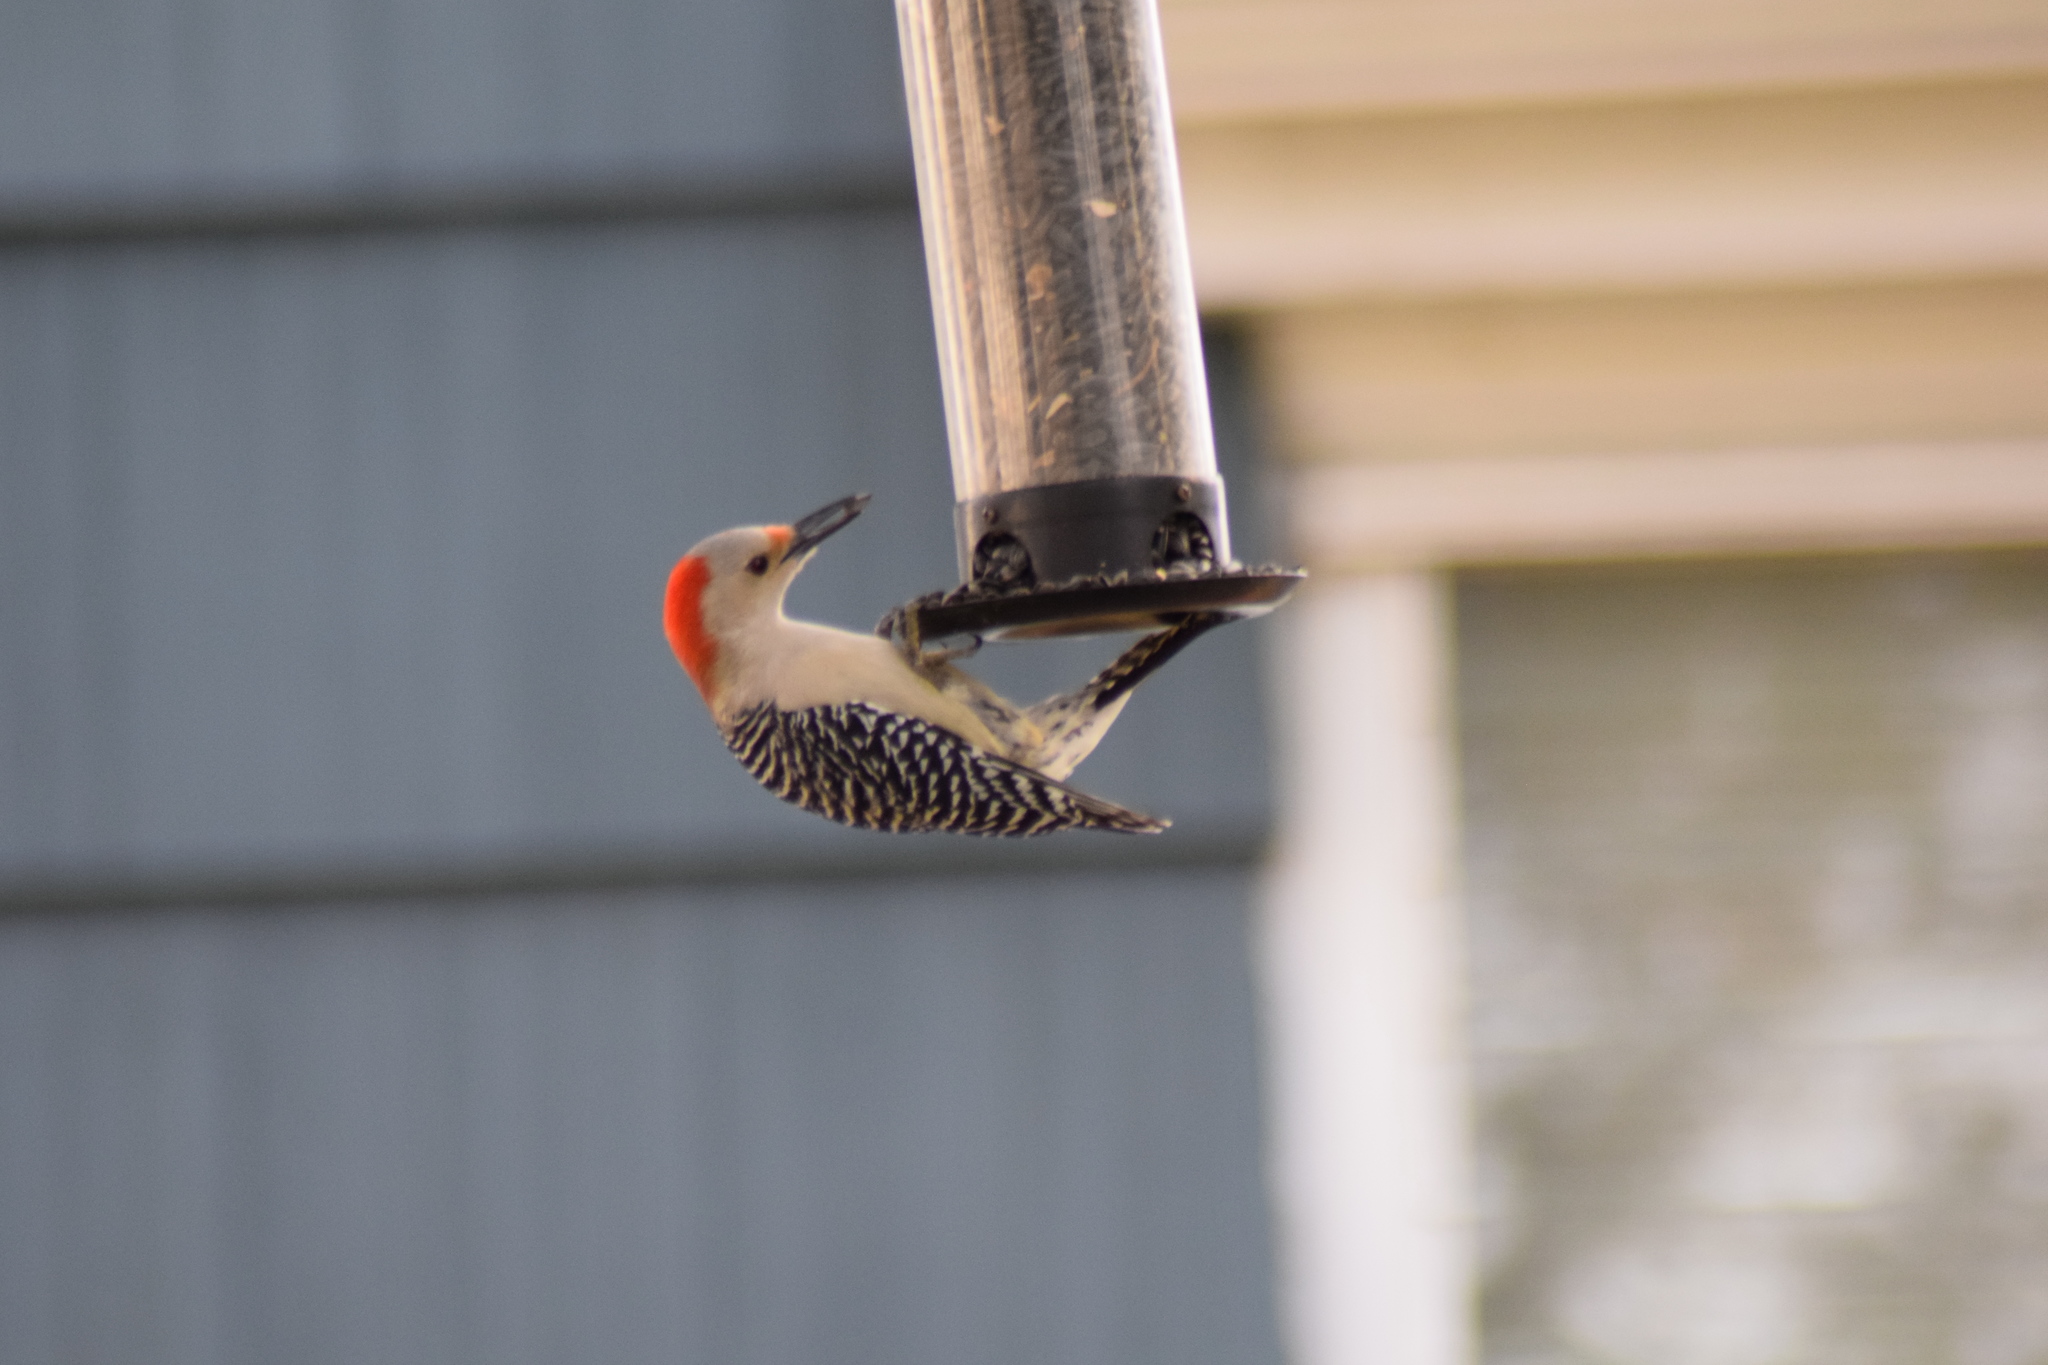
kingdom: Animalia
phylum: Chordata
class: Aves
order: Piciformes
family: Picidae
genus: Melanerpes
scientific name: Melanerpes carolinus
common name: Red-bellied woodpecker
